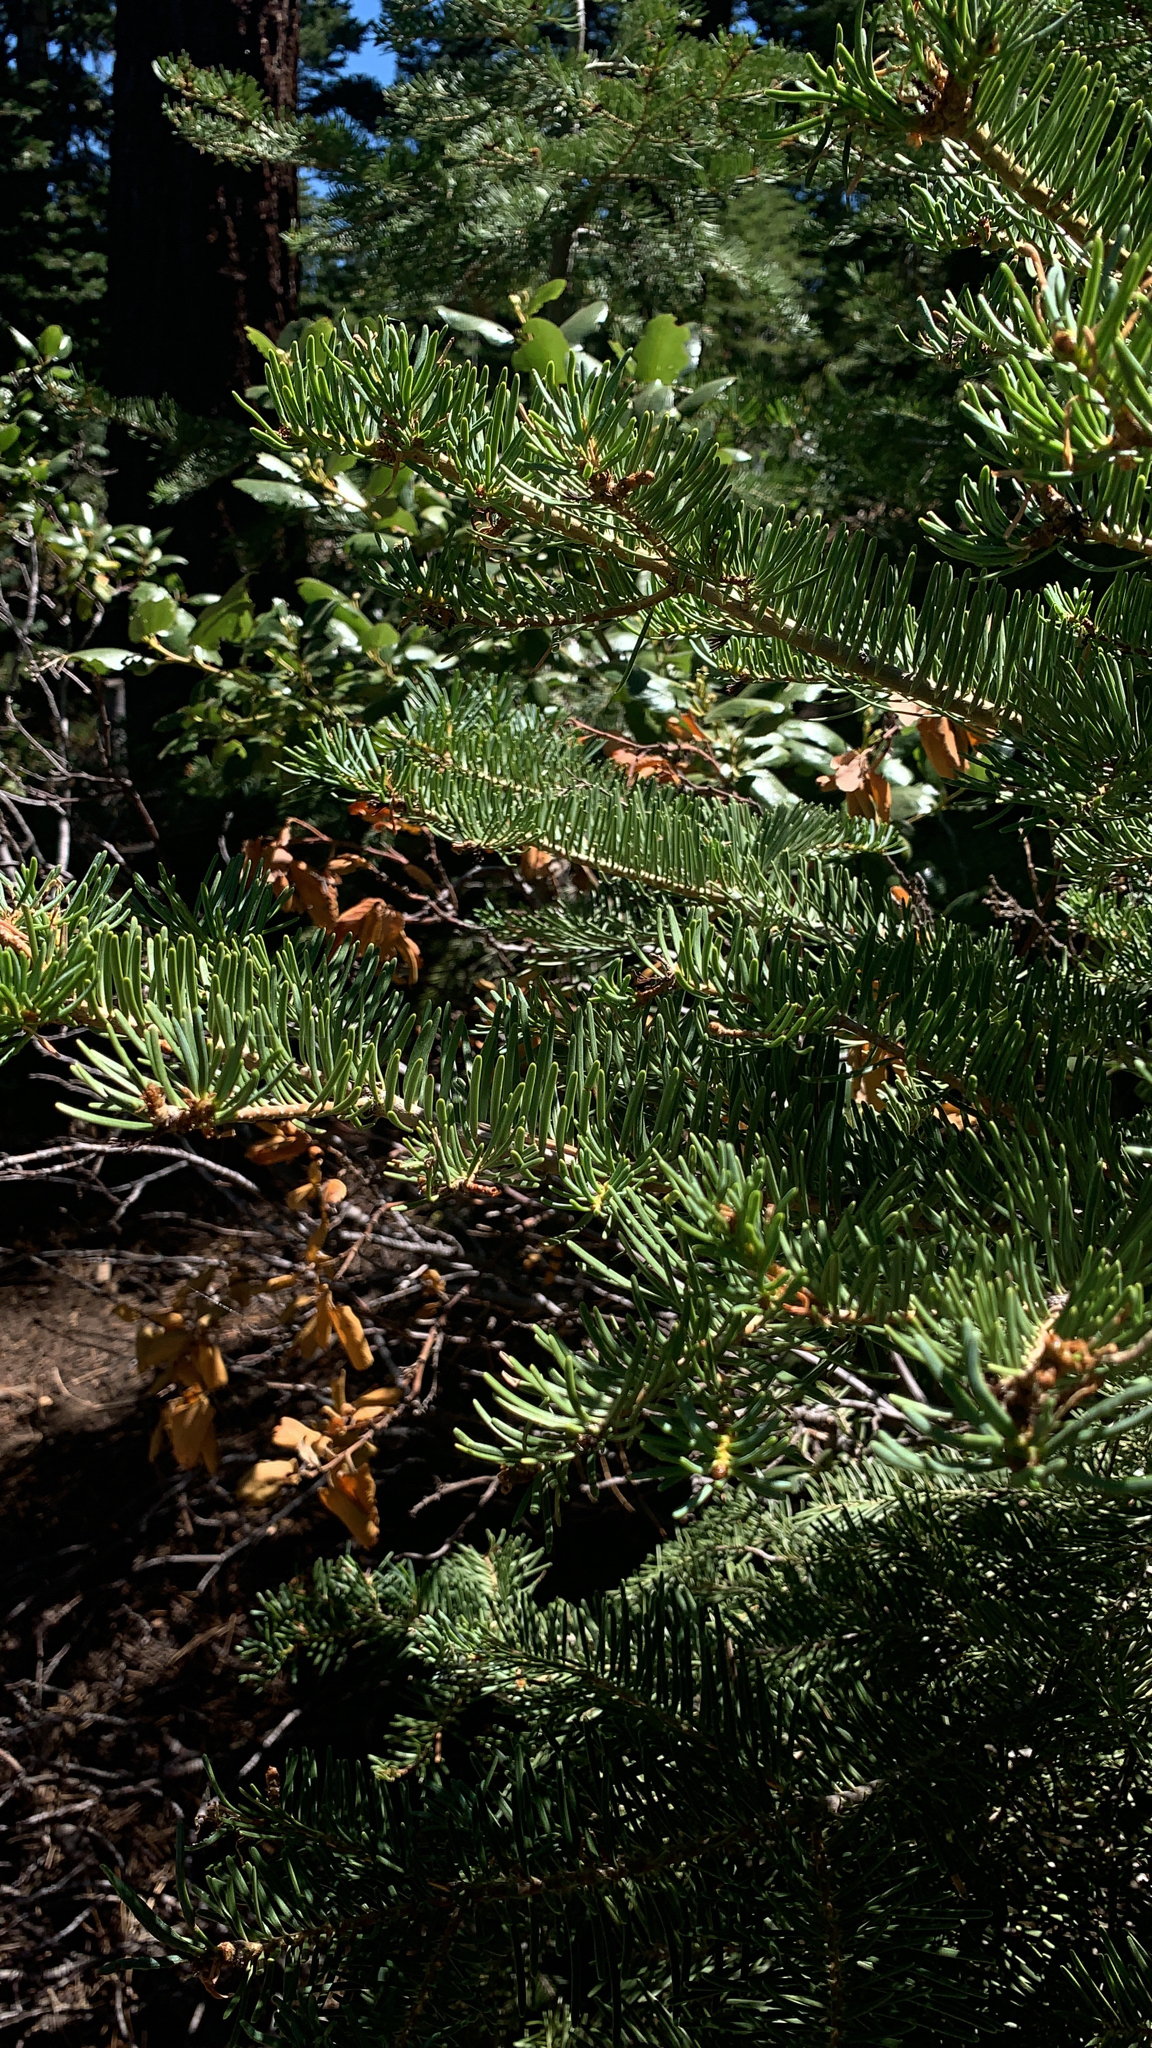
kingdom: Plantae
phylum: Tracheophyta
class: Pinopsida
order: Pinales
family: Pinaceae
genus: Abies
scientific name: Abies concolor
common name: Colorado fir
